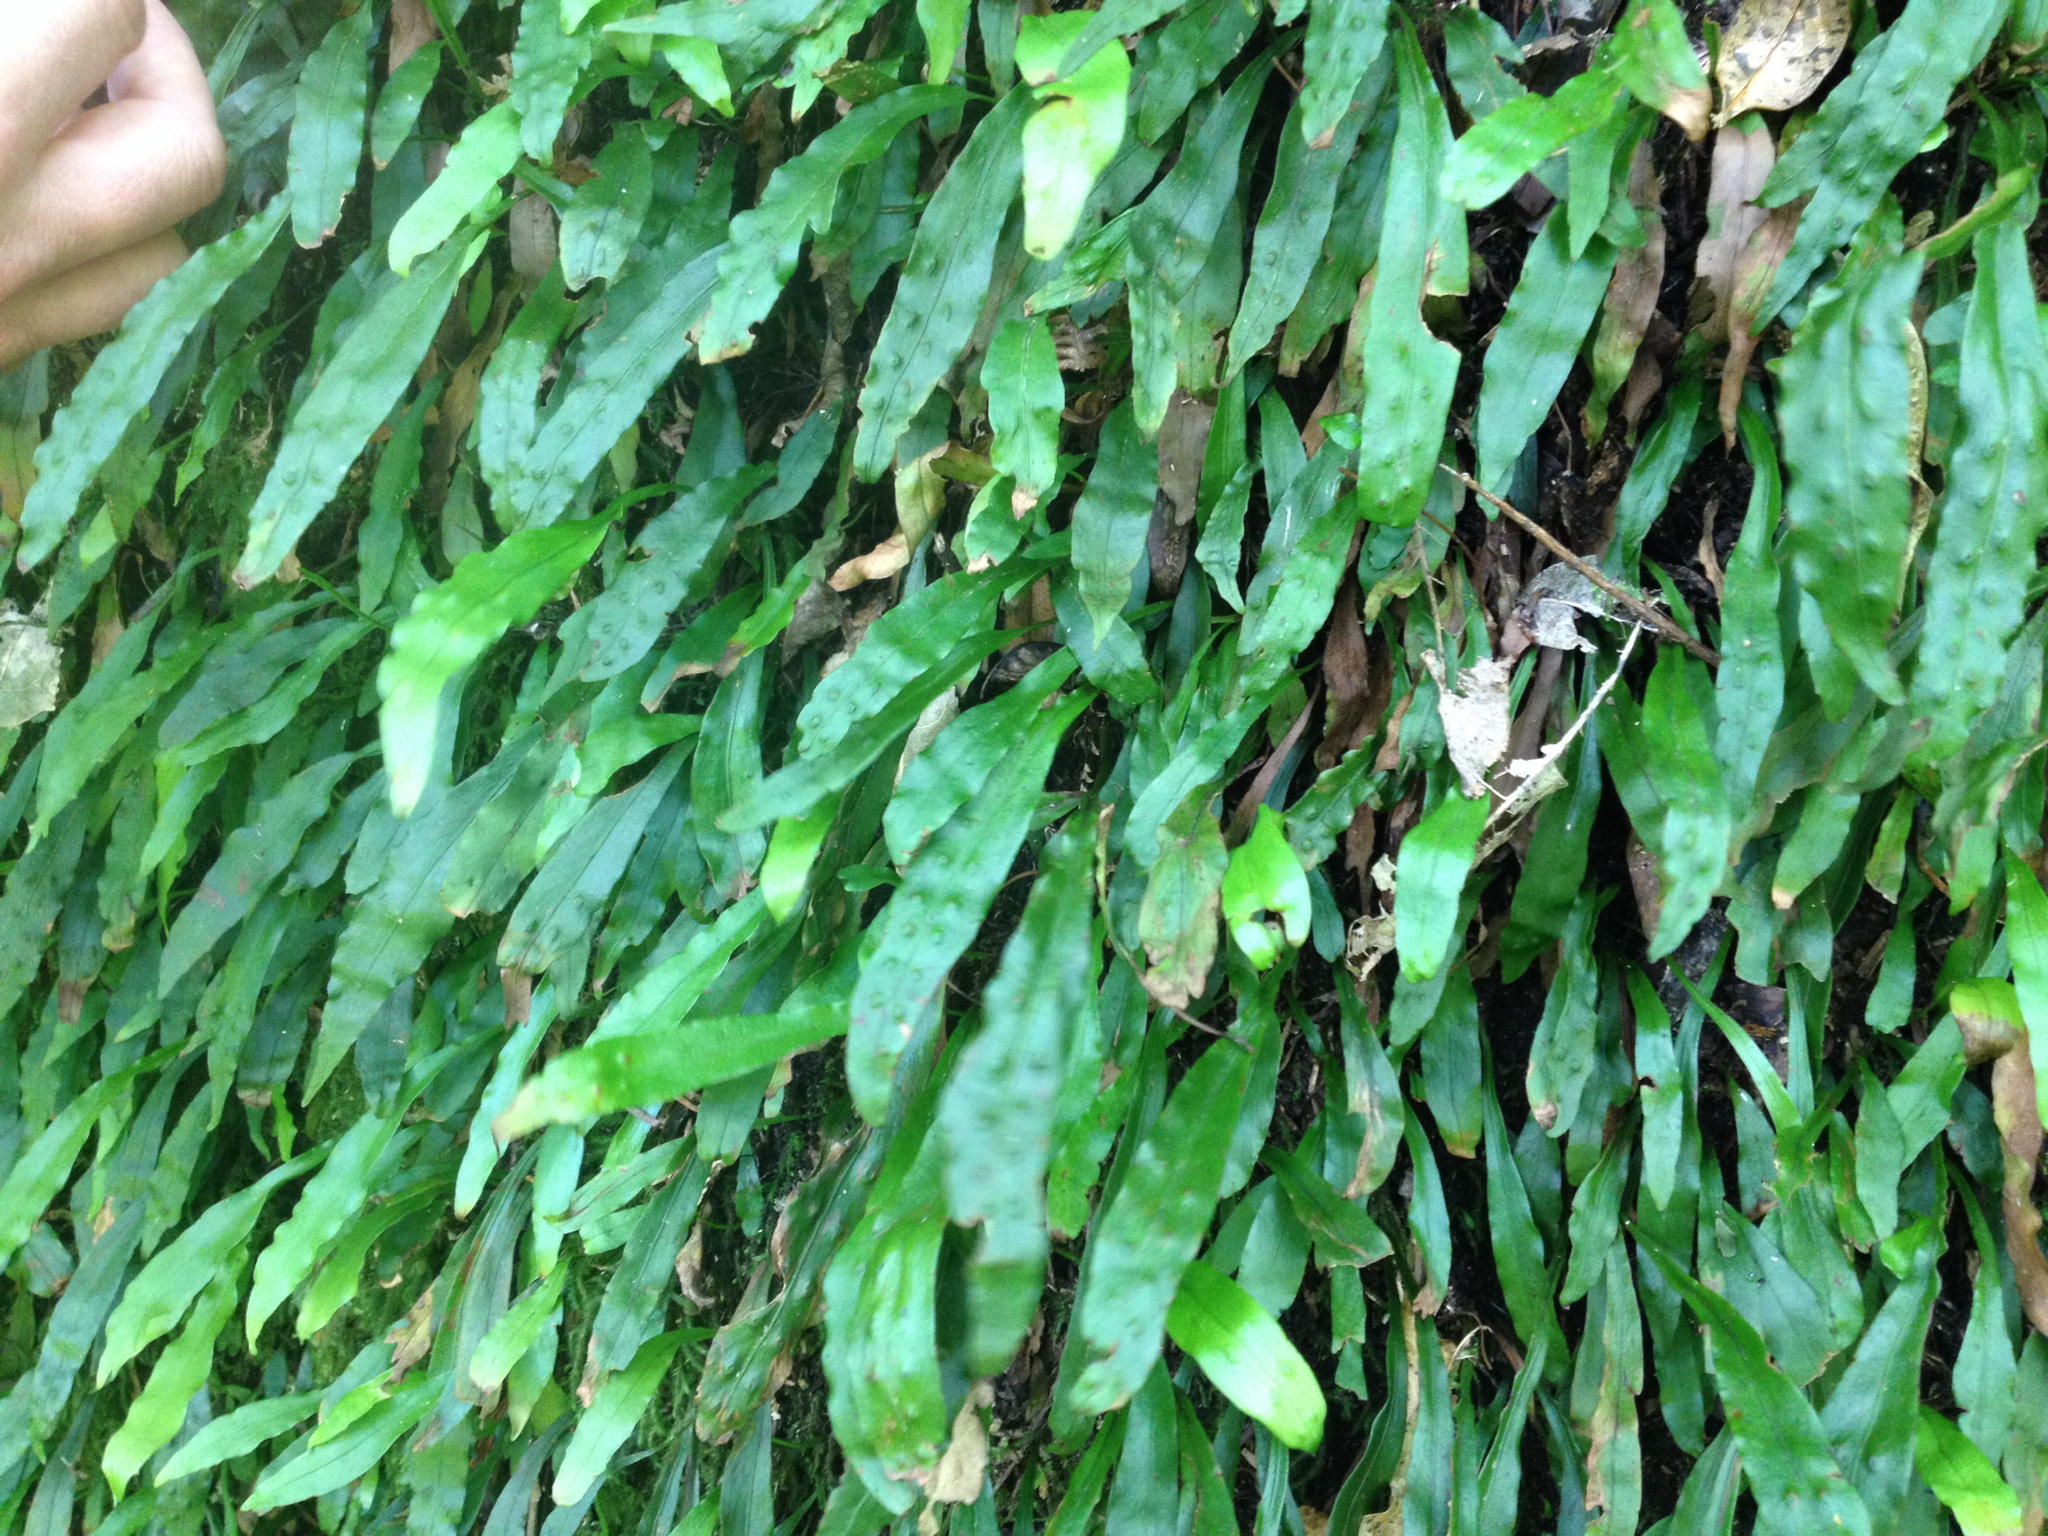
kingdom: Plantae
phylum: Tracheophyta
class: Polypodiopsida
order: Polypodiales
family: Polypodiaceae
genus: Loxogramme
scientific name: Loxogramme dictyopteris
